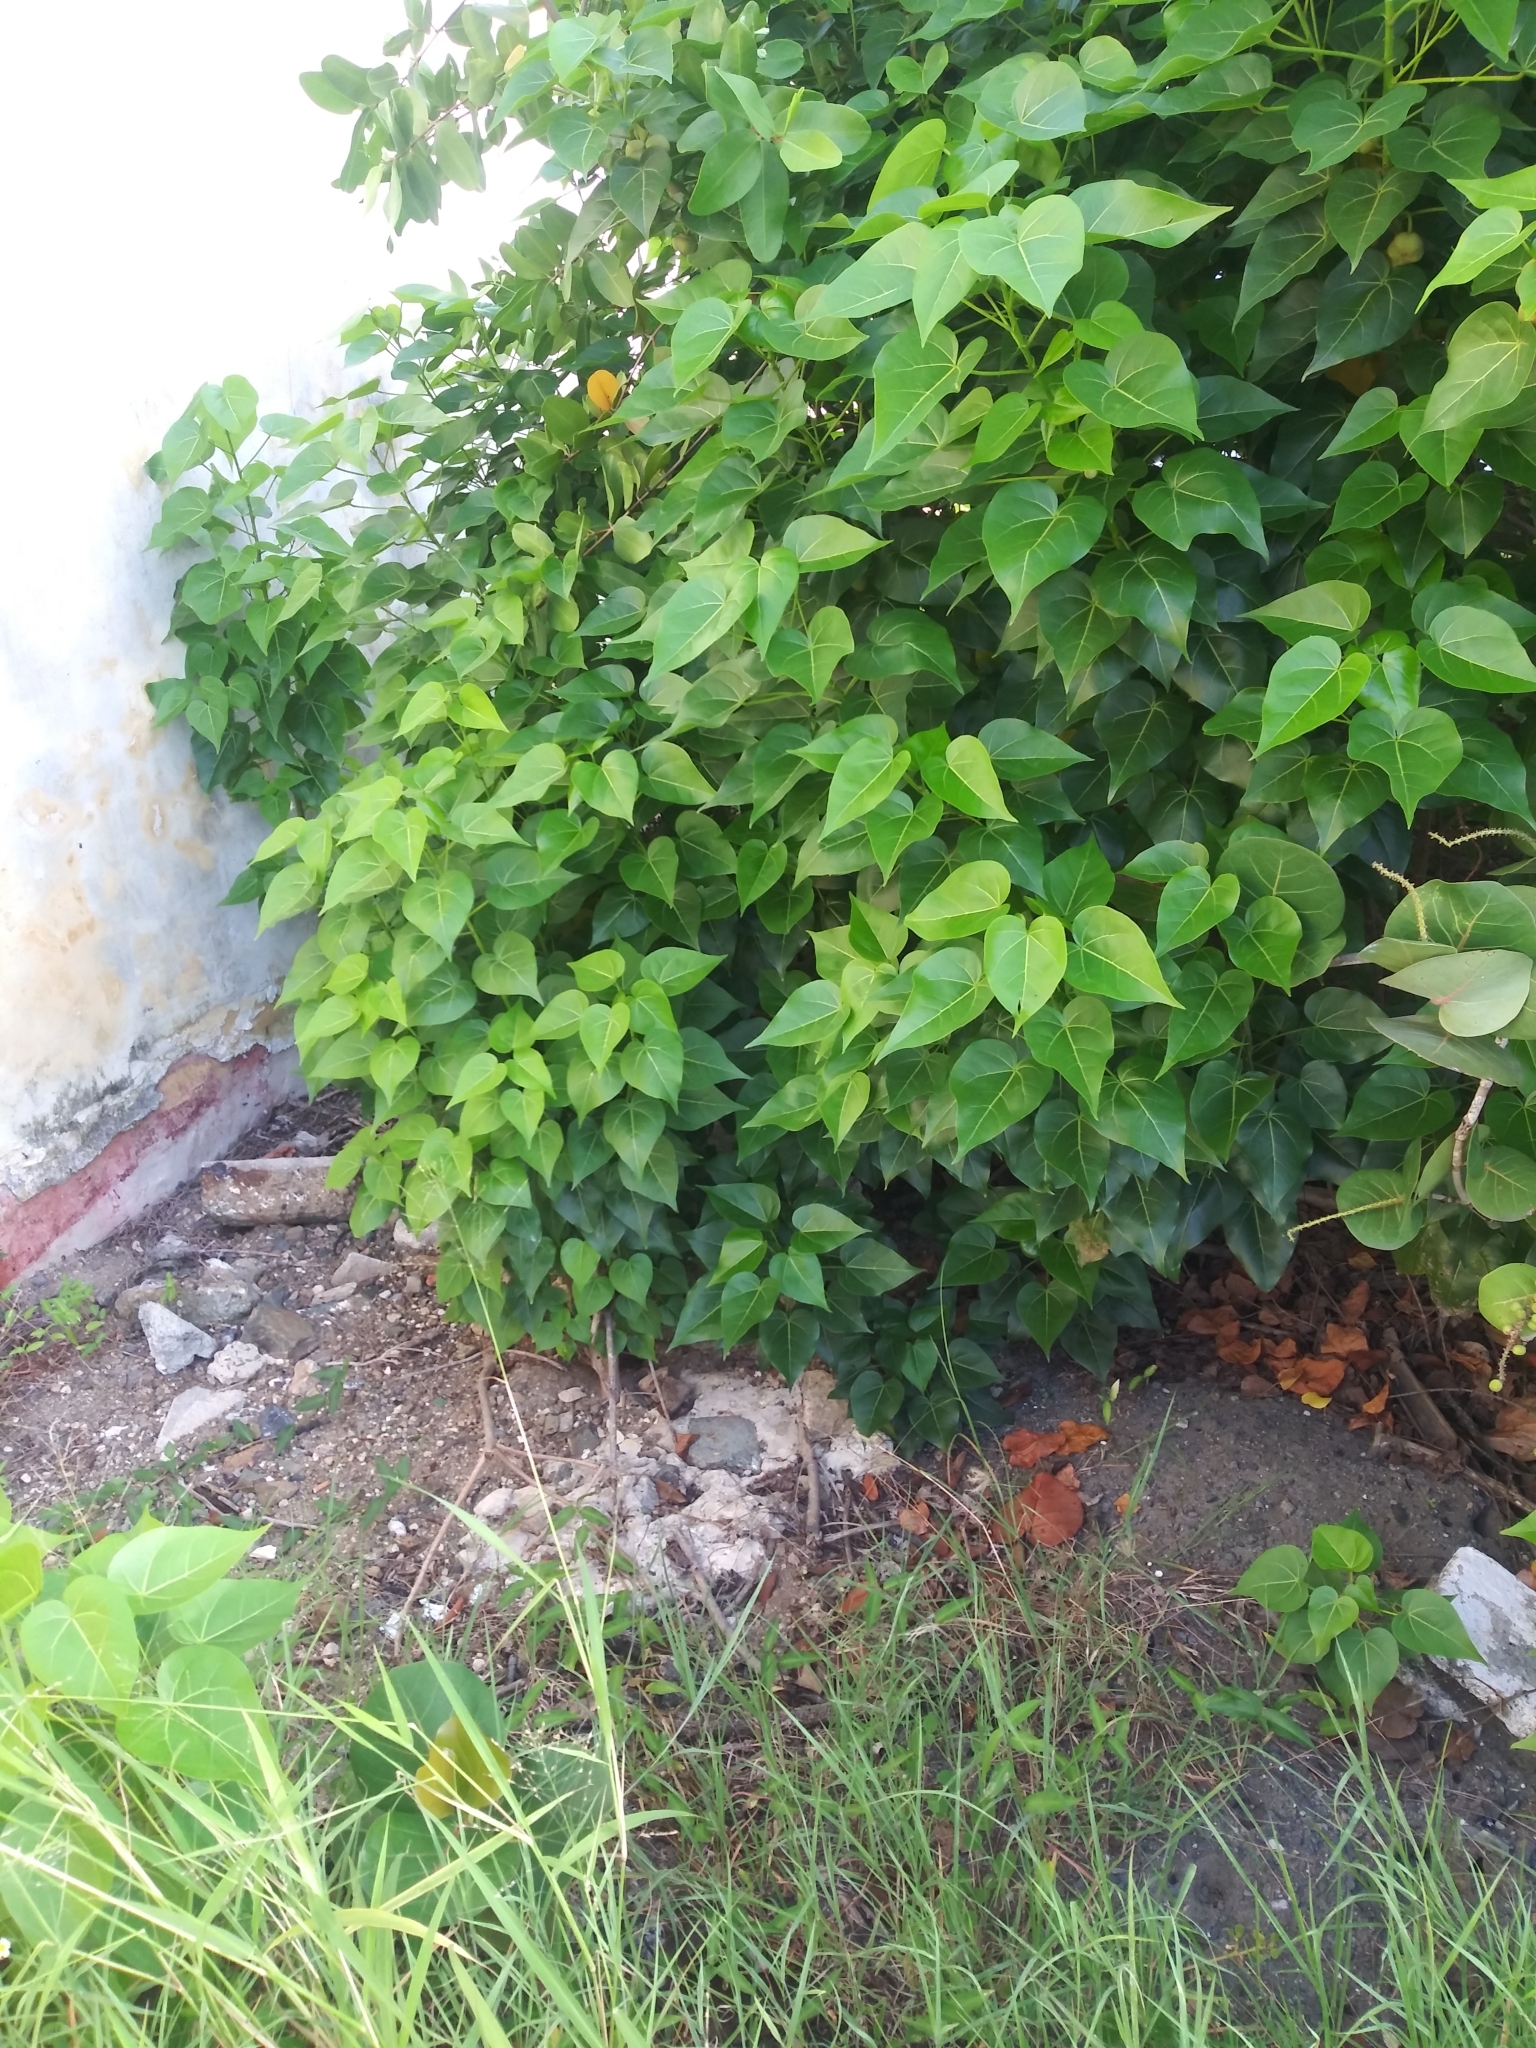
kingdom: Plantae
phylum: Tracheophyta
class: Magnoliopsida
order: Malvales
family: Malvaceae
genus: Thespesia
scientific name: Thespesia populnea
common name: Seaside mahoe
